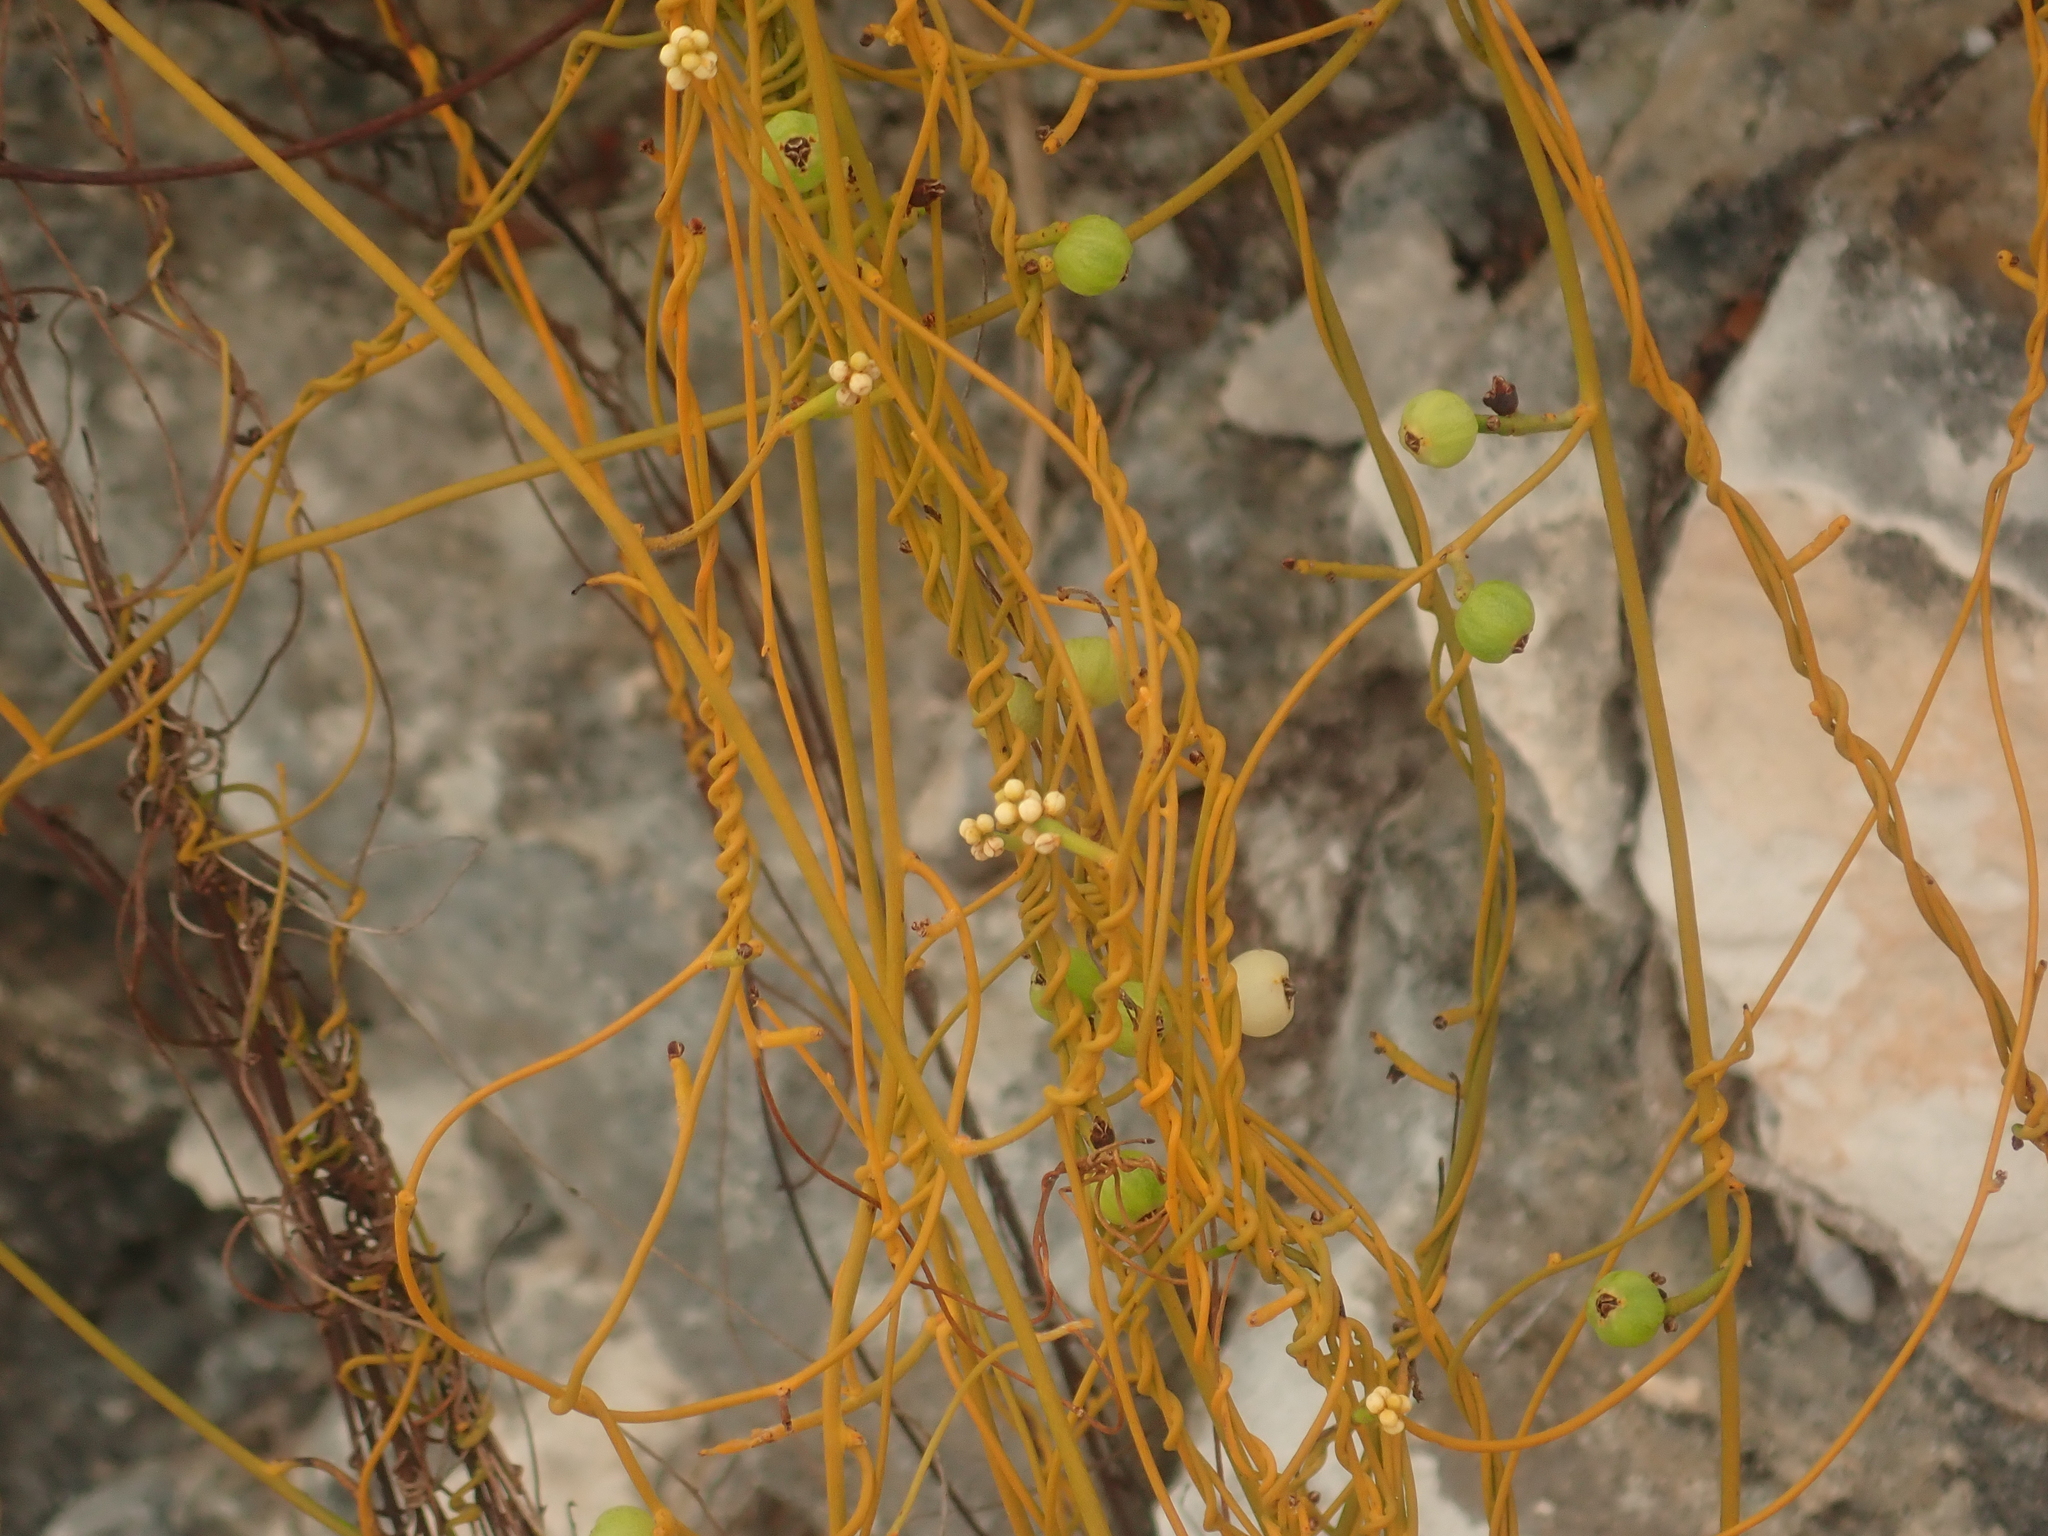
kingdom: Plantae
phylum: Tracheophyta
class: Magnoliopsida
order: Laurales
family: Lauraceae
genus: Cassytha
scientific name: Cassytha filiformis
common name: Dodder-laurel
